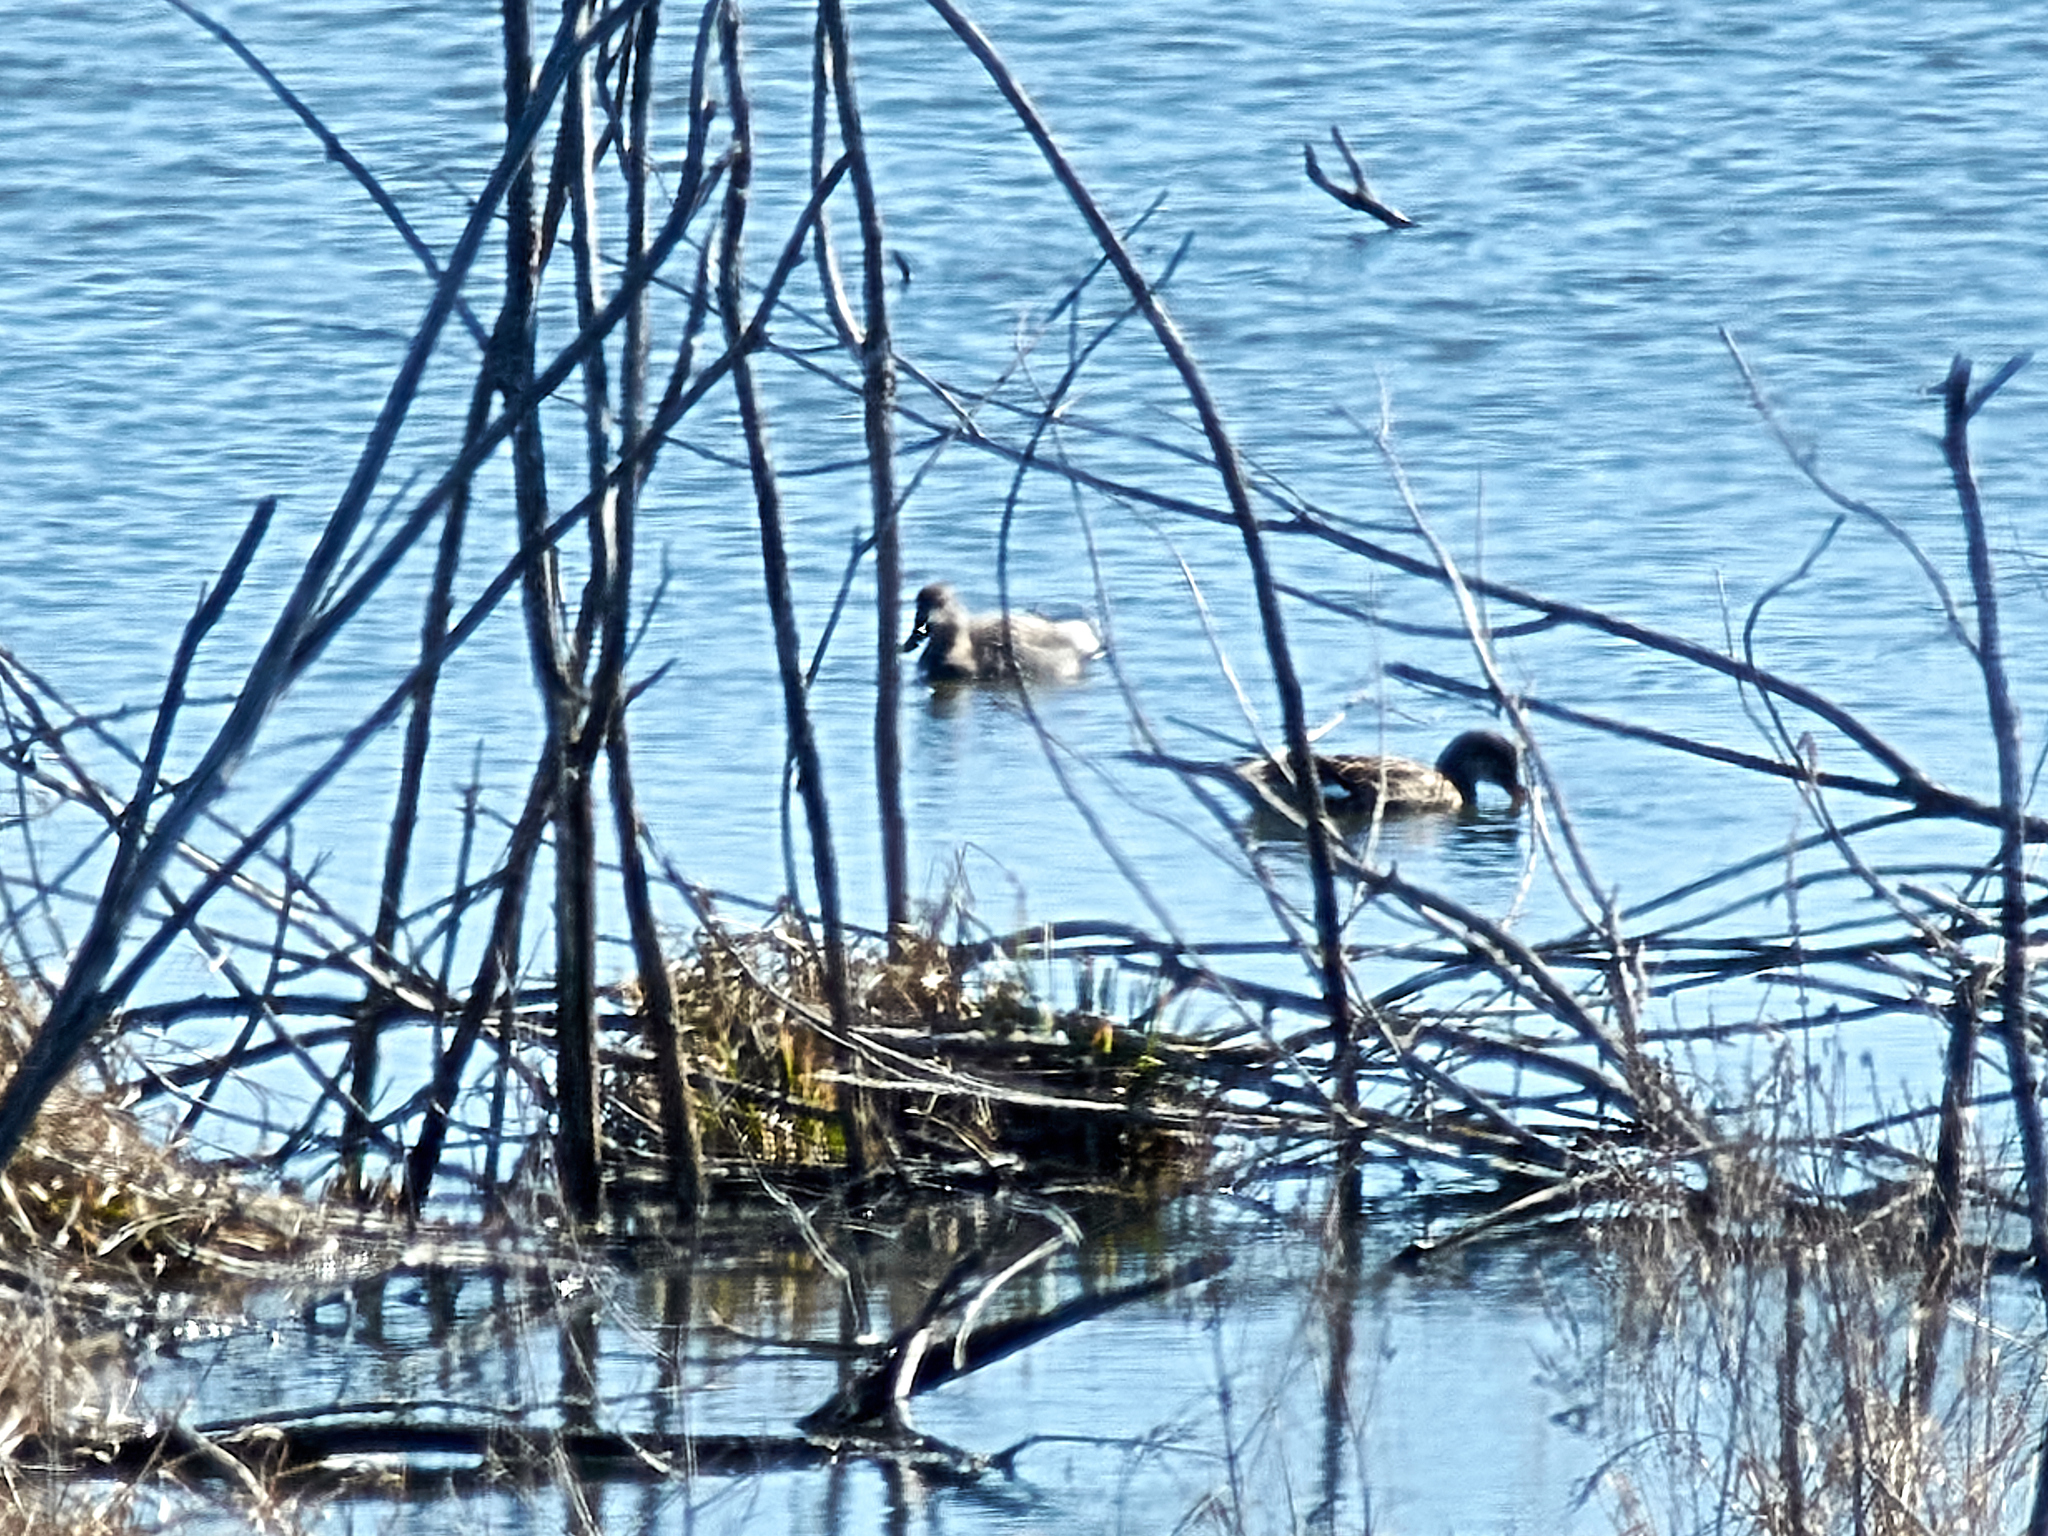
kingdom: Animalia
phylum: Chordata
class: Aves
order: Anseriformes
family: Anatidae
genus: Mareca
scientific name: Mareca strepera
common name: Gadwall
